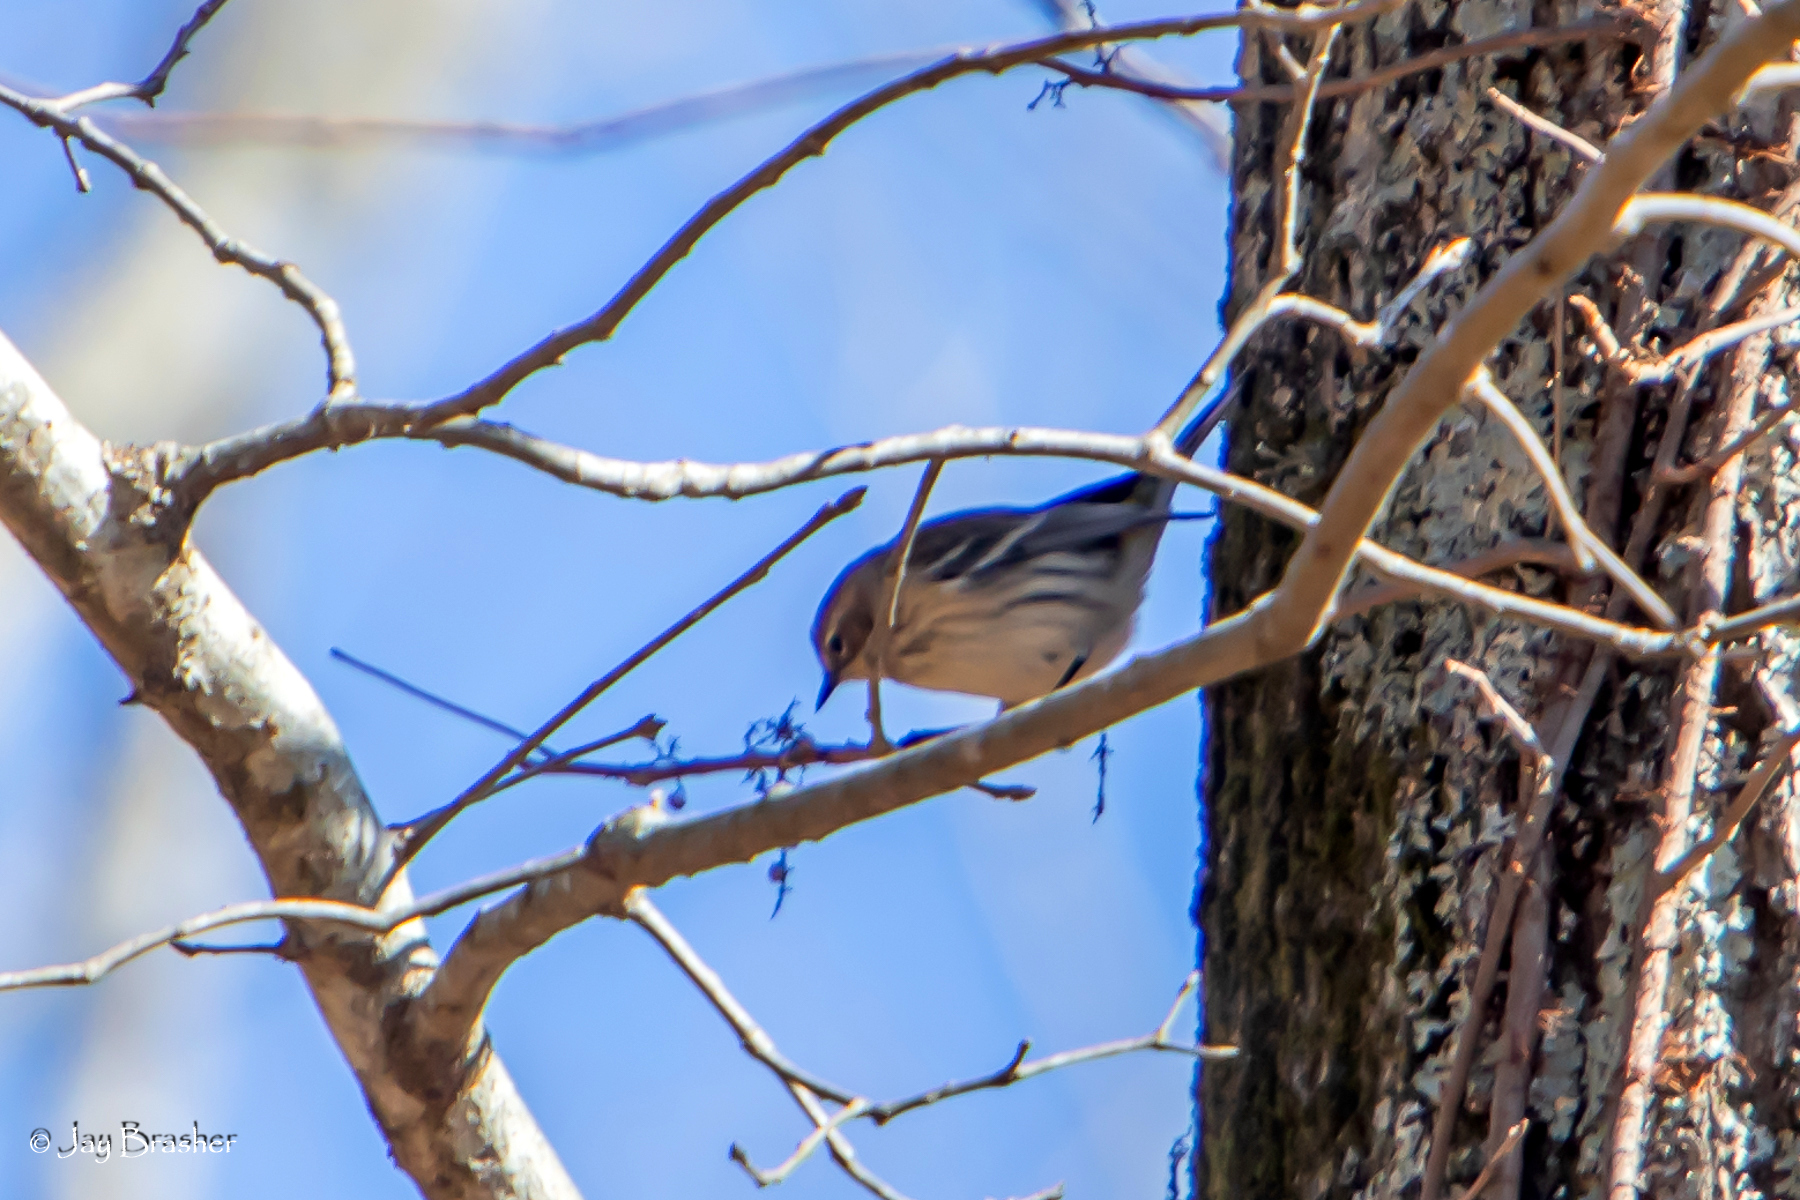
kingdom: Animalia
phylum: Chordata
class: Aves
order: Passeriformes
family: Parulidae
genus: Setophaga
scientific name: Setophaga coronata
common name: Myrtle warbler
